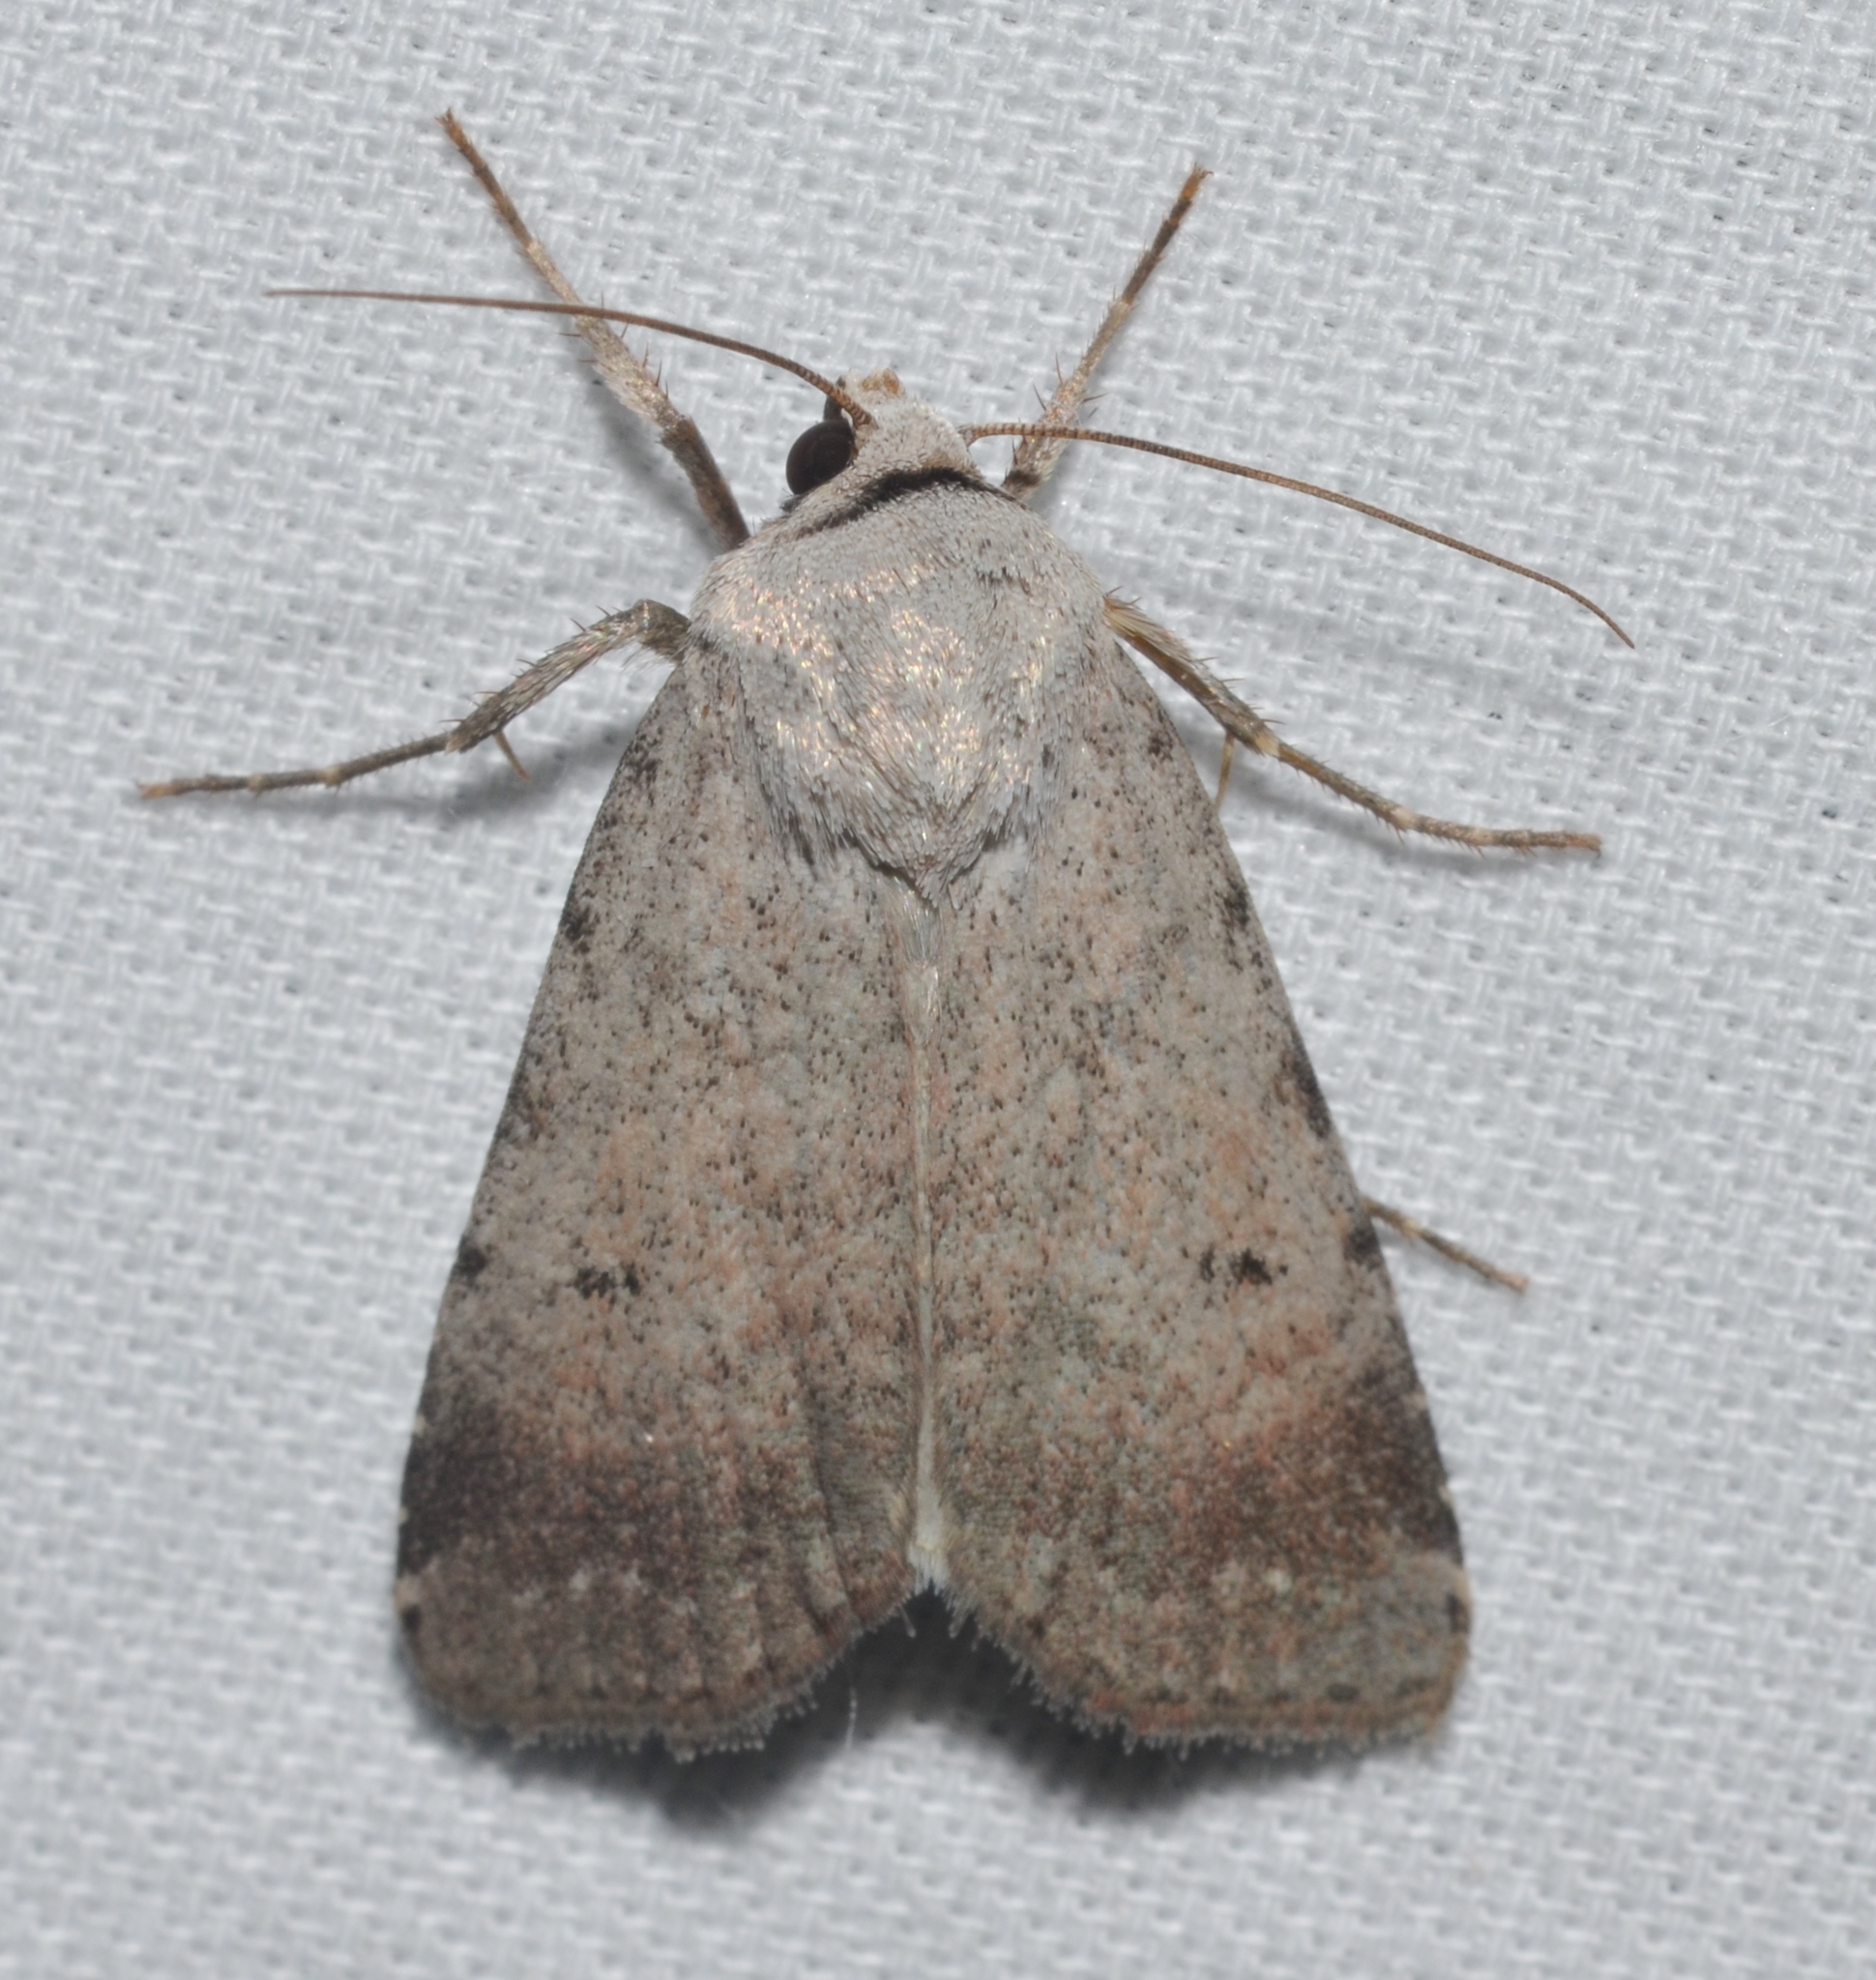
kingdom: Animalia
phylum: Arthropoda
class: Insecta
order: Lepidoptera
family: Noctuidae
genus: Anicla
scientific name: Anicla lubricans
